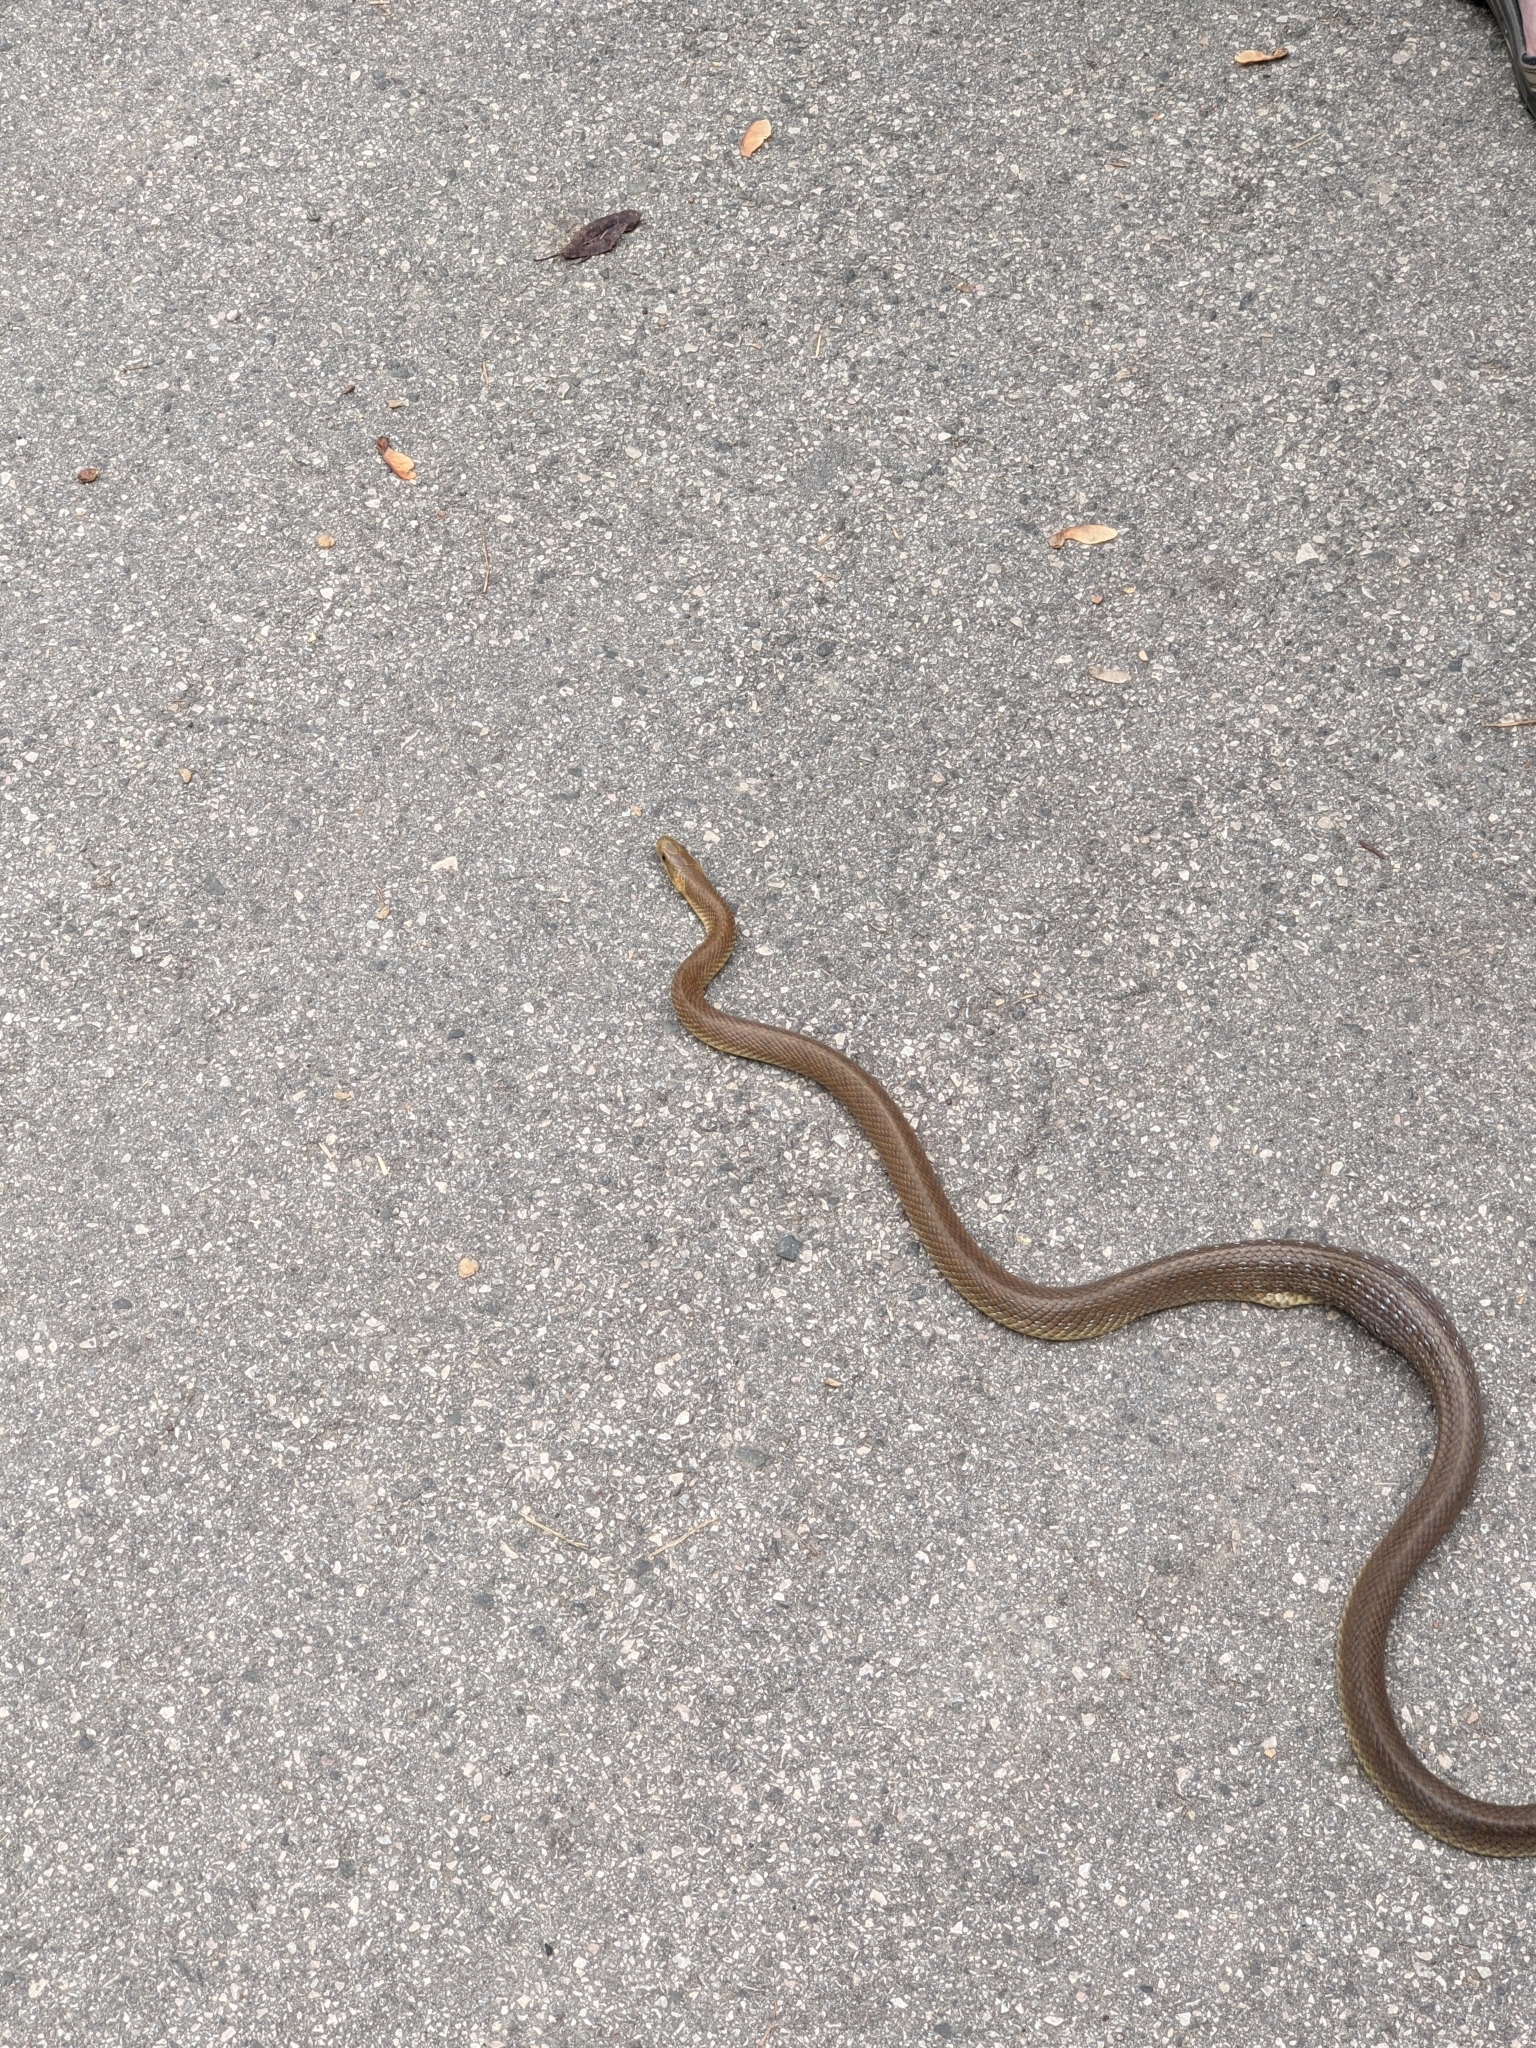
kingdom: Animalia
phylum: Chordata
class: Squamata
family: Colubridae
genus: Zamenis
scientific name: Zamenis longissimus
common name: Aesculapean snake
